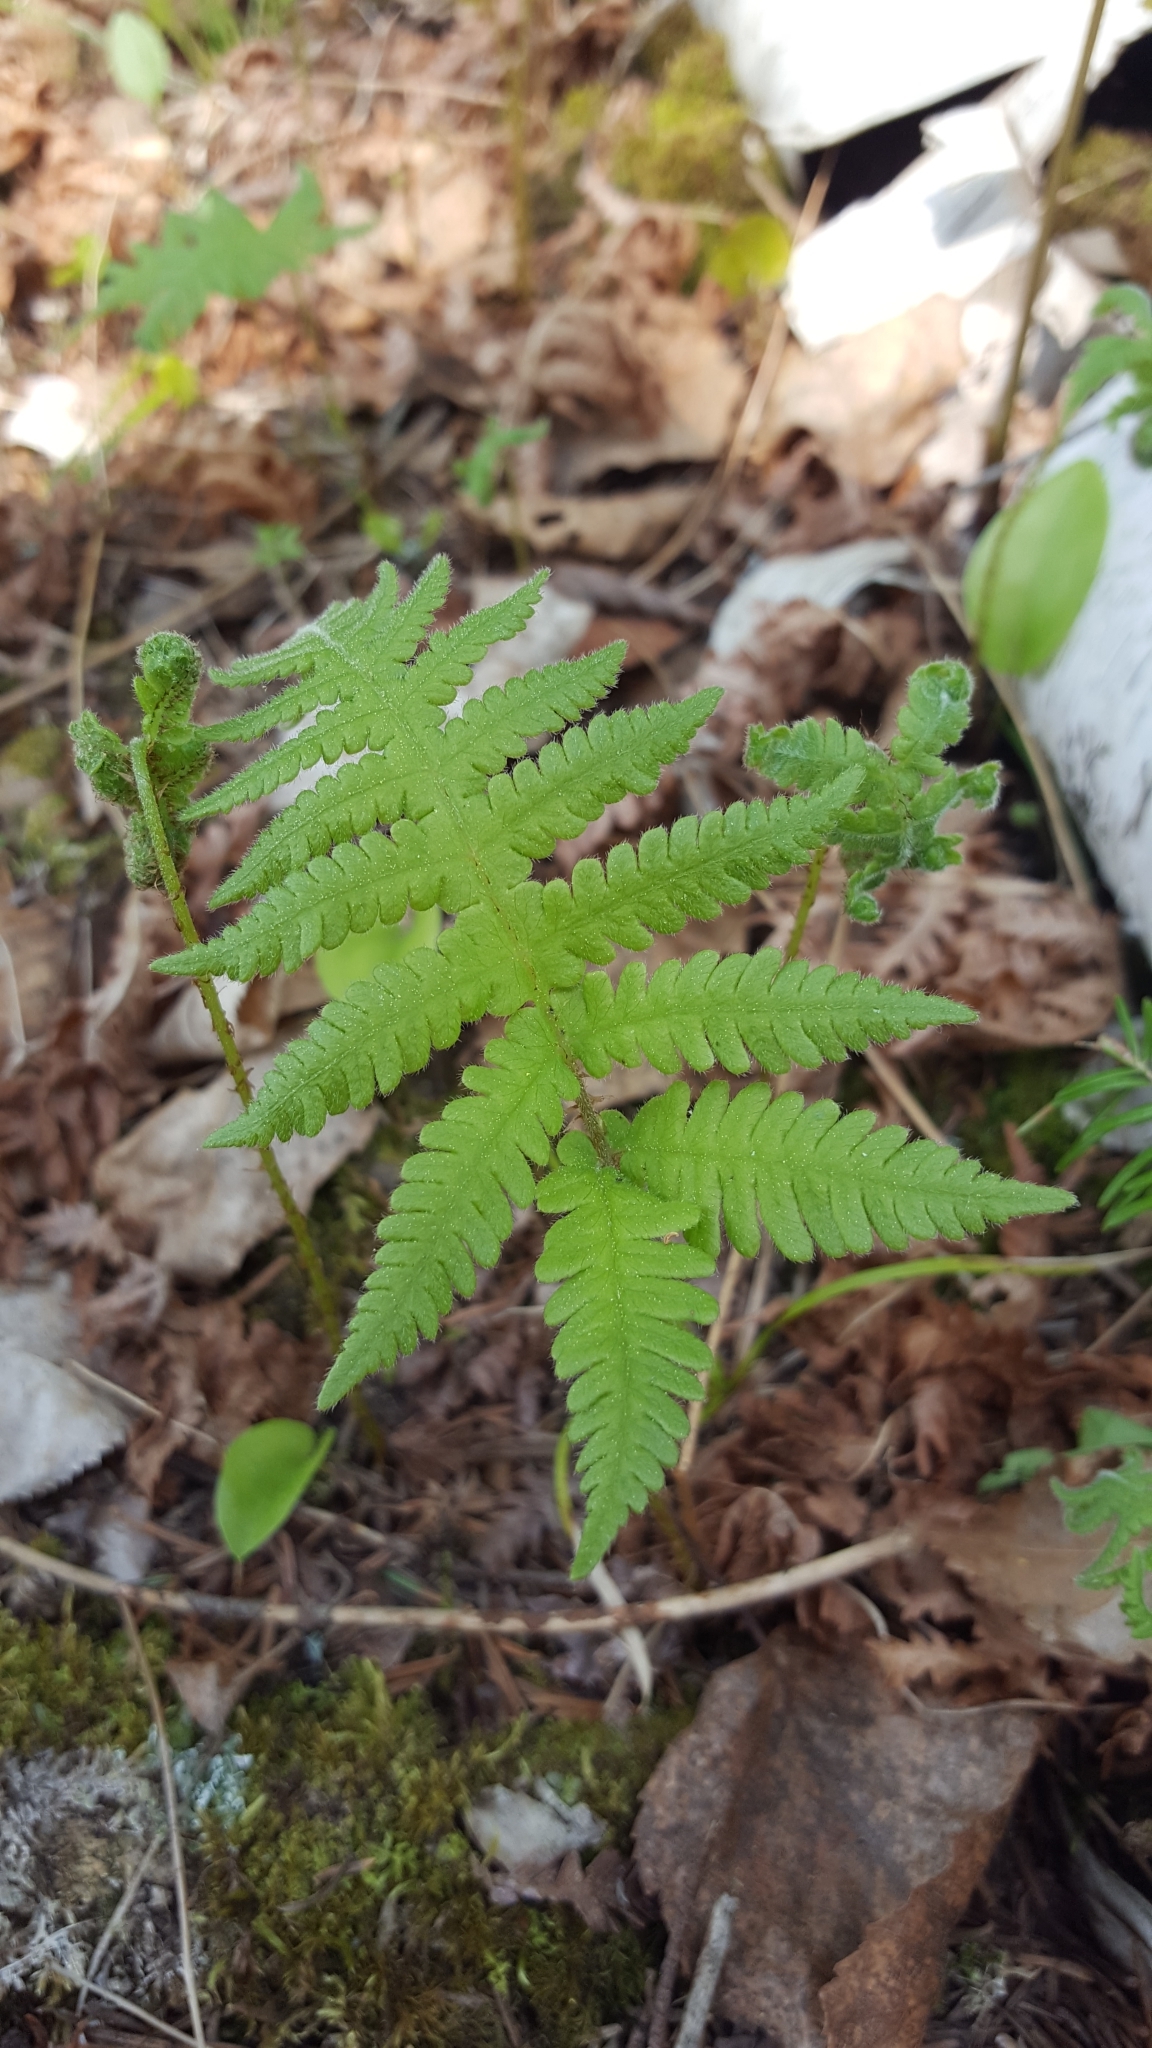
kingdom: Plantae
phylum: Tracheophyta
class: Polypodiopsida
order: Polypodiales
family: Thelypteridaceae
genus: Phegopteris
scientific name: Phegopteris connectilis
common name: Beech fern
